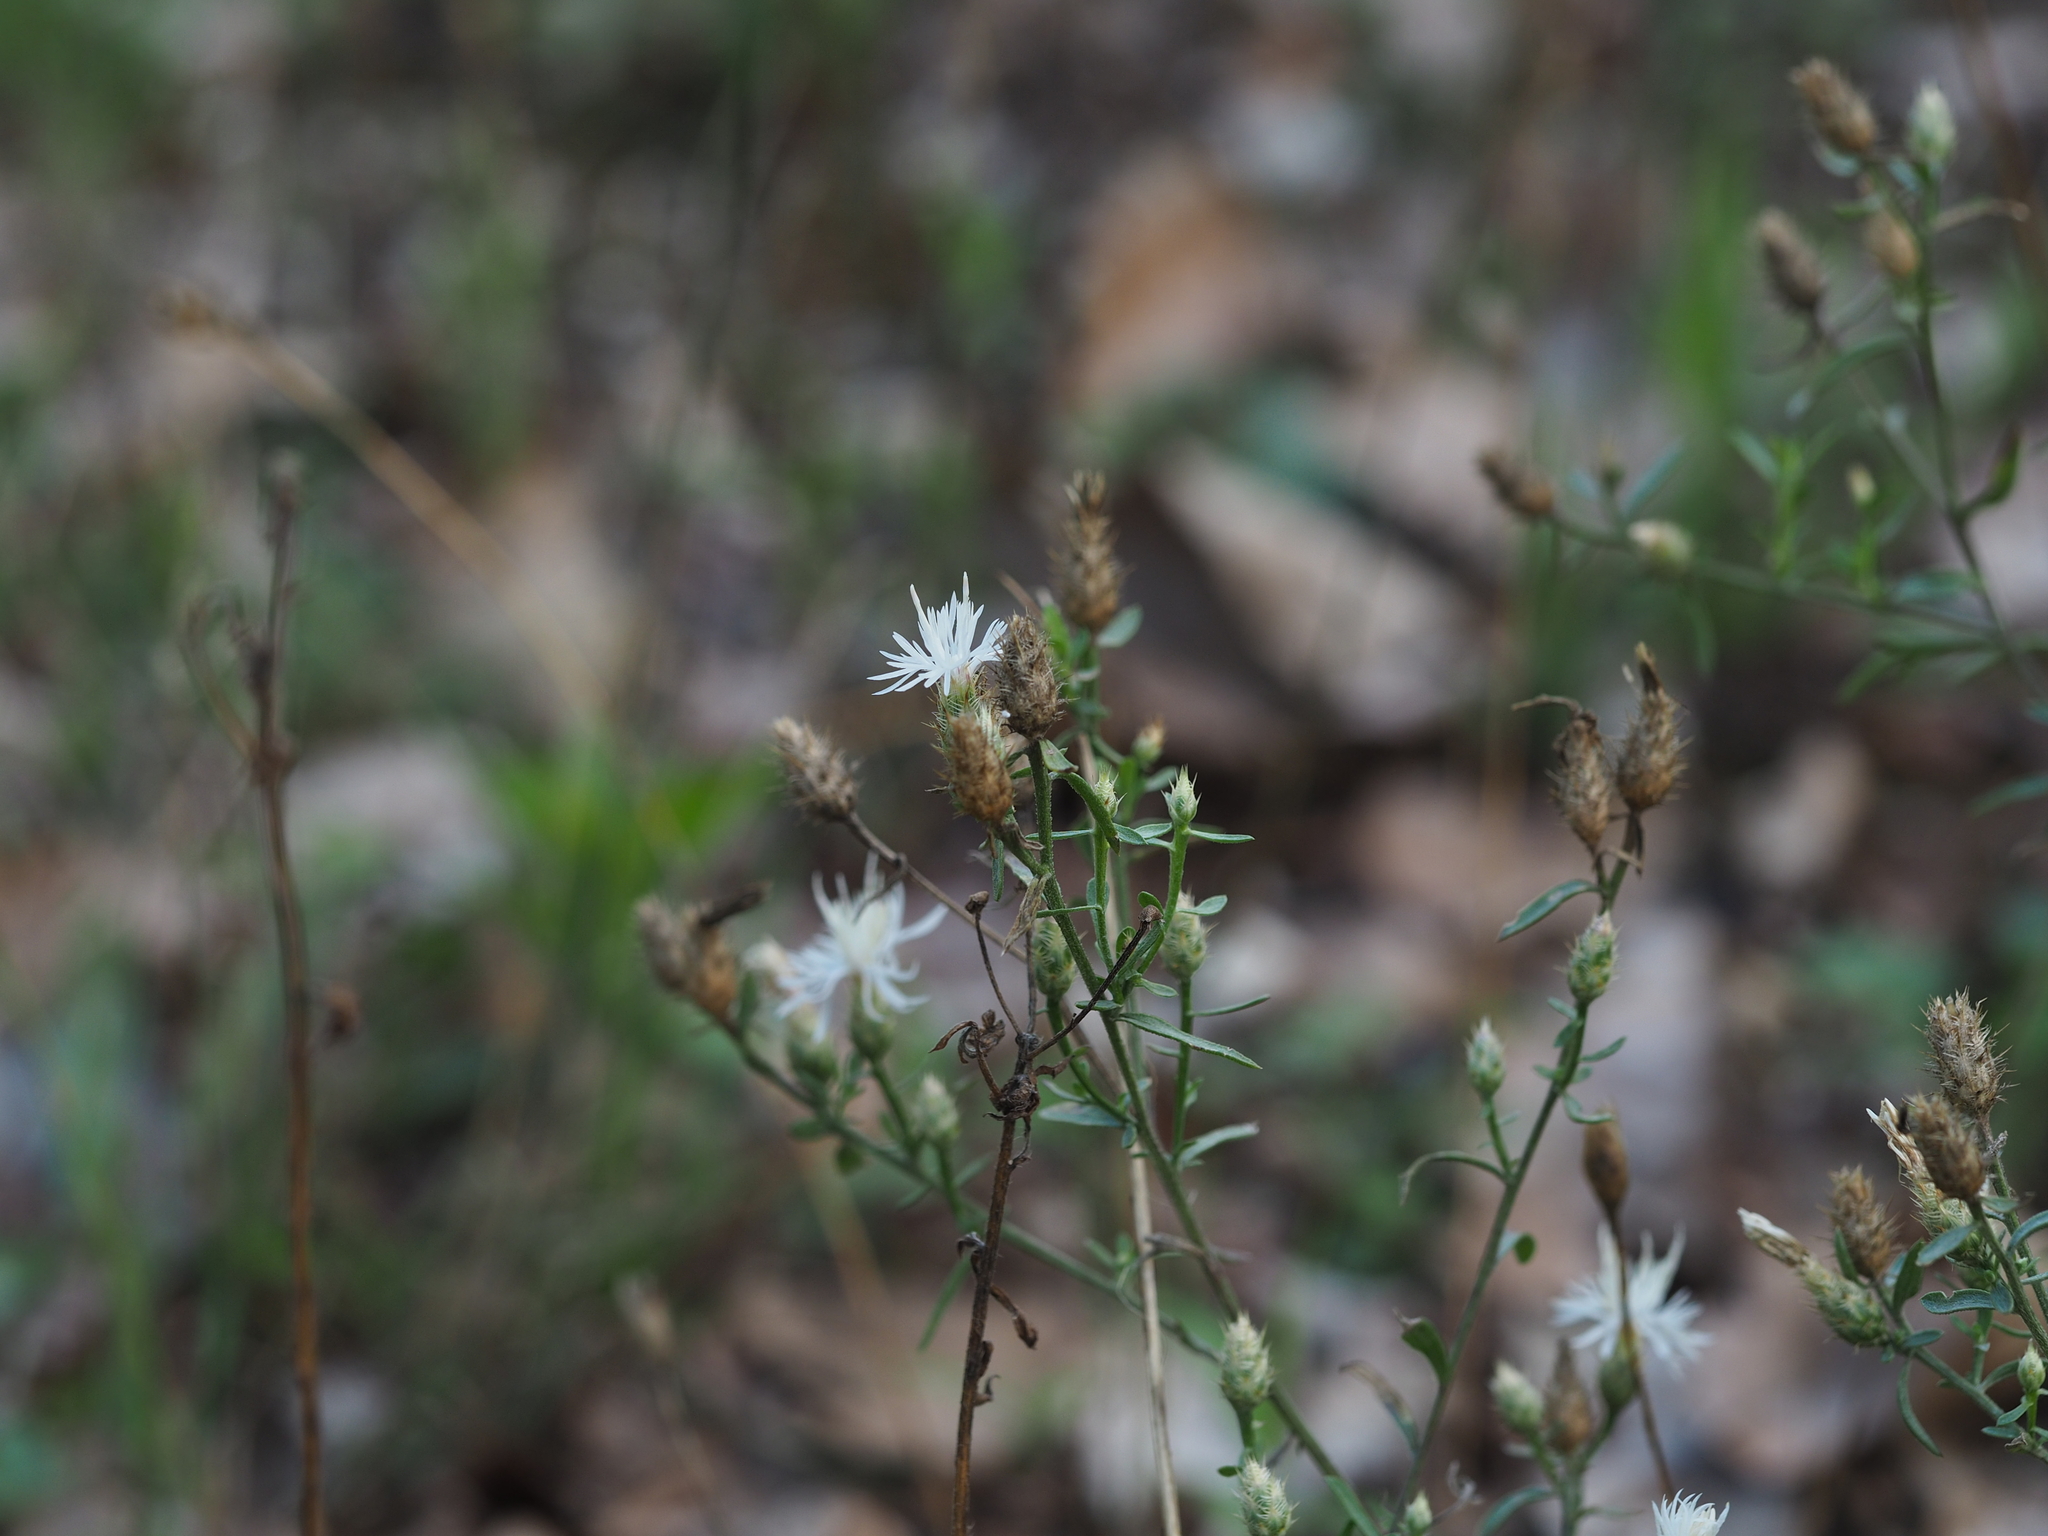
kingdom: Plantae
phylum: Tracheophyta
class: Magnoliopsida
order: Asterales
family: Asteraceae
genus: Centaurea
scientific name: Centaurea diffusa
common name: Diffuse knapweed
